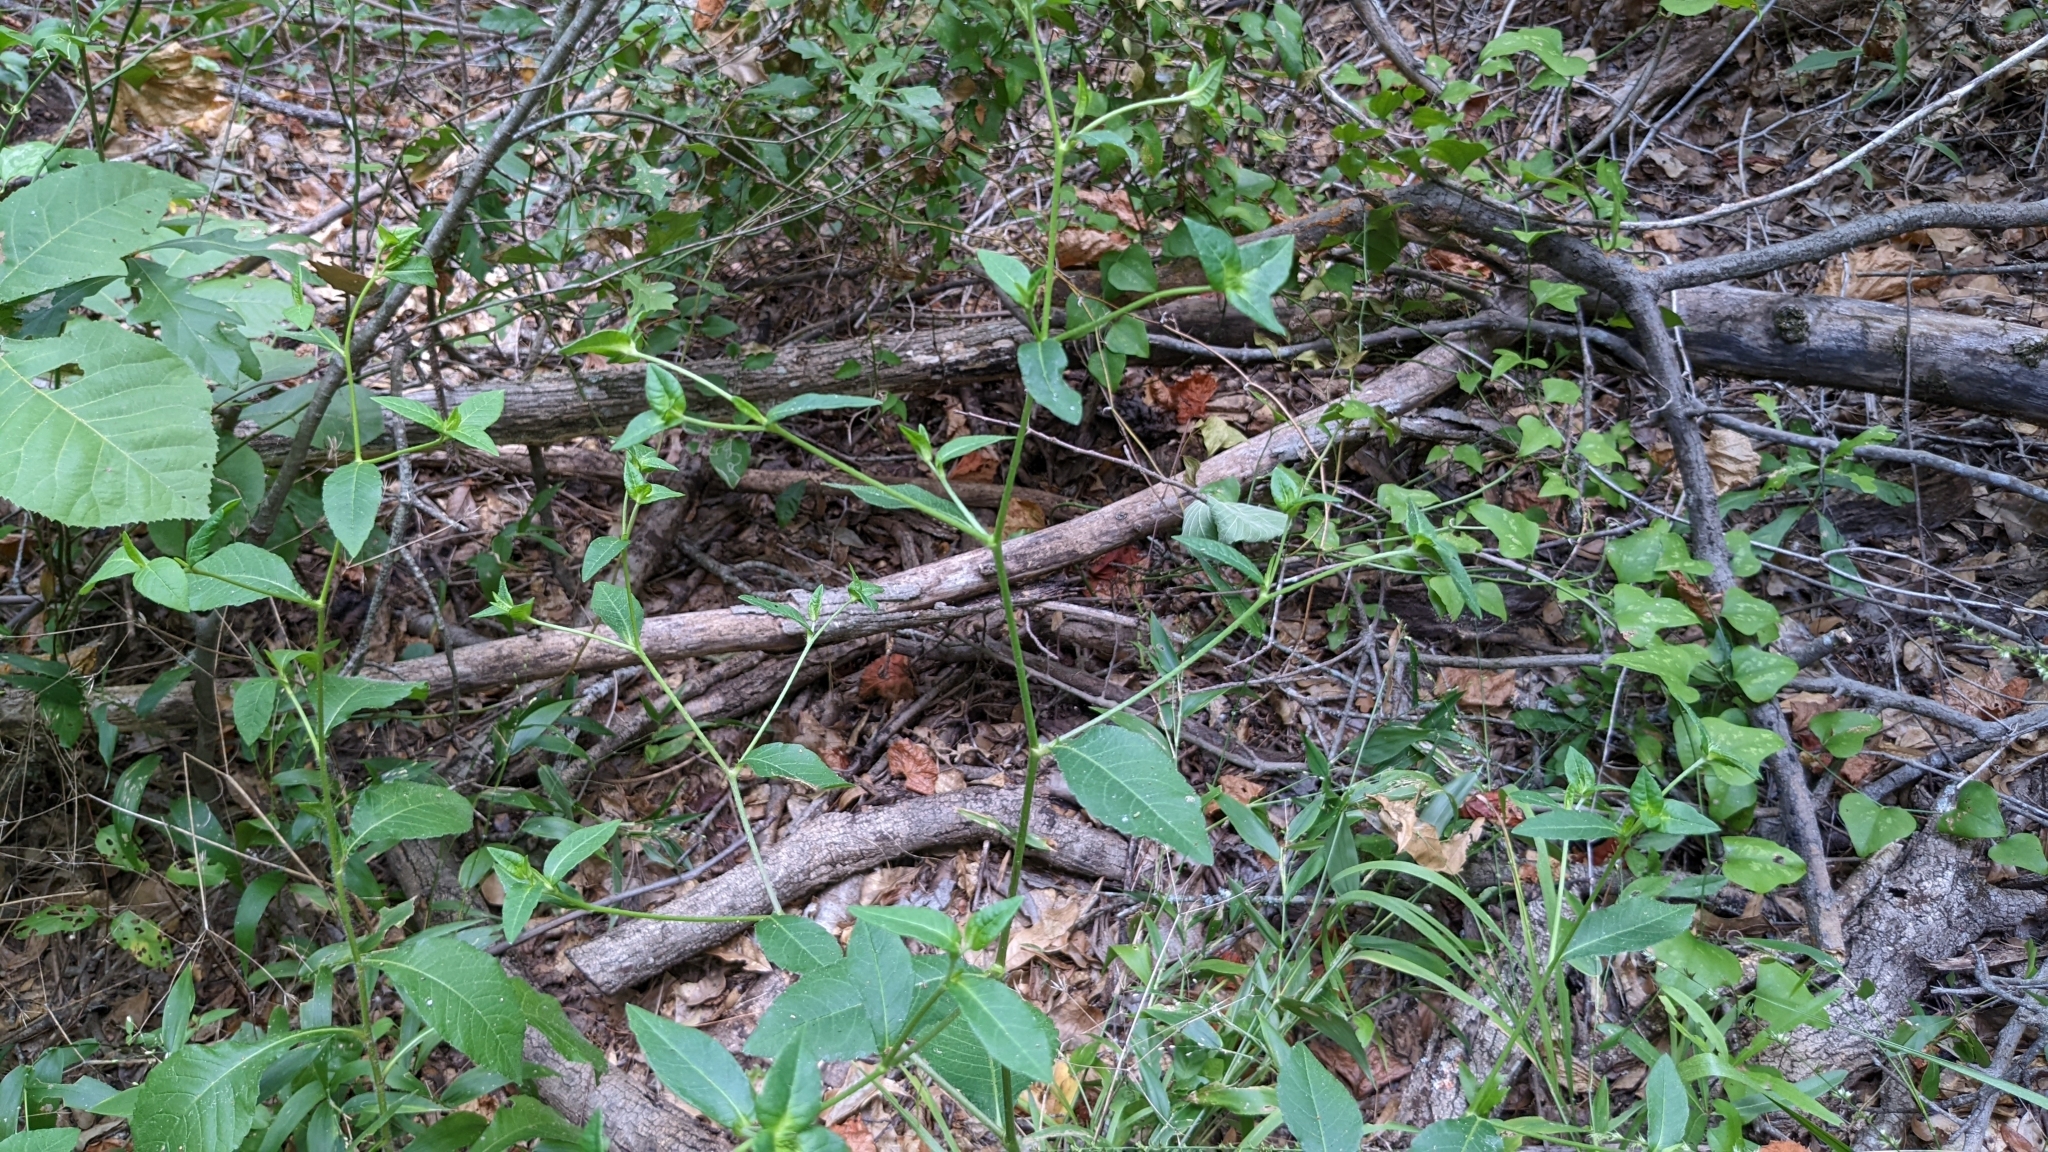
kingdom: Plantae
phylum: Tracheophyta
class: Magnoliopsida
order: Asterales
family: Asteraceae
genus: Elephantopus
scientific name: Elephantopus carolinianus
